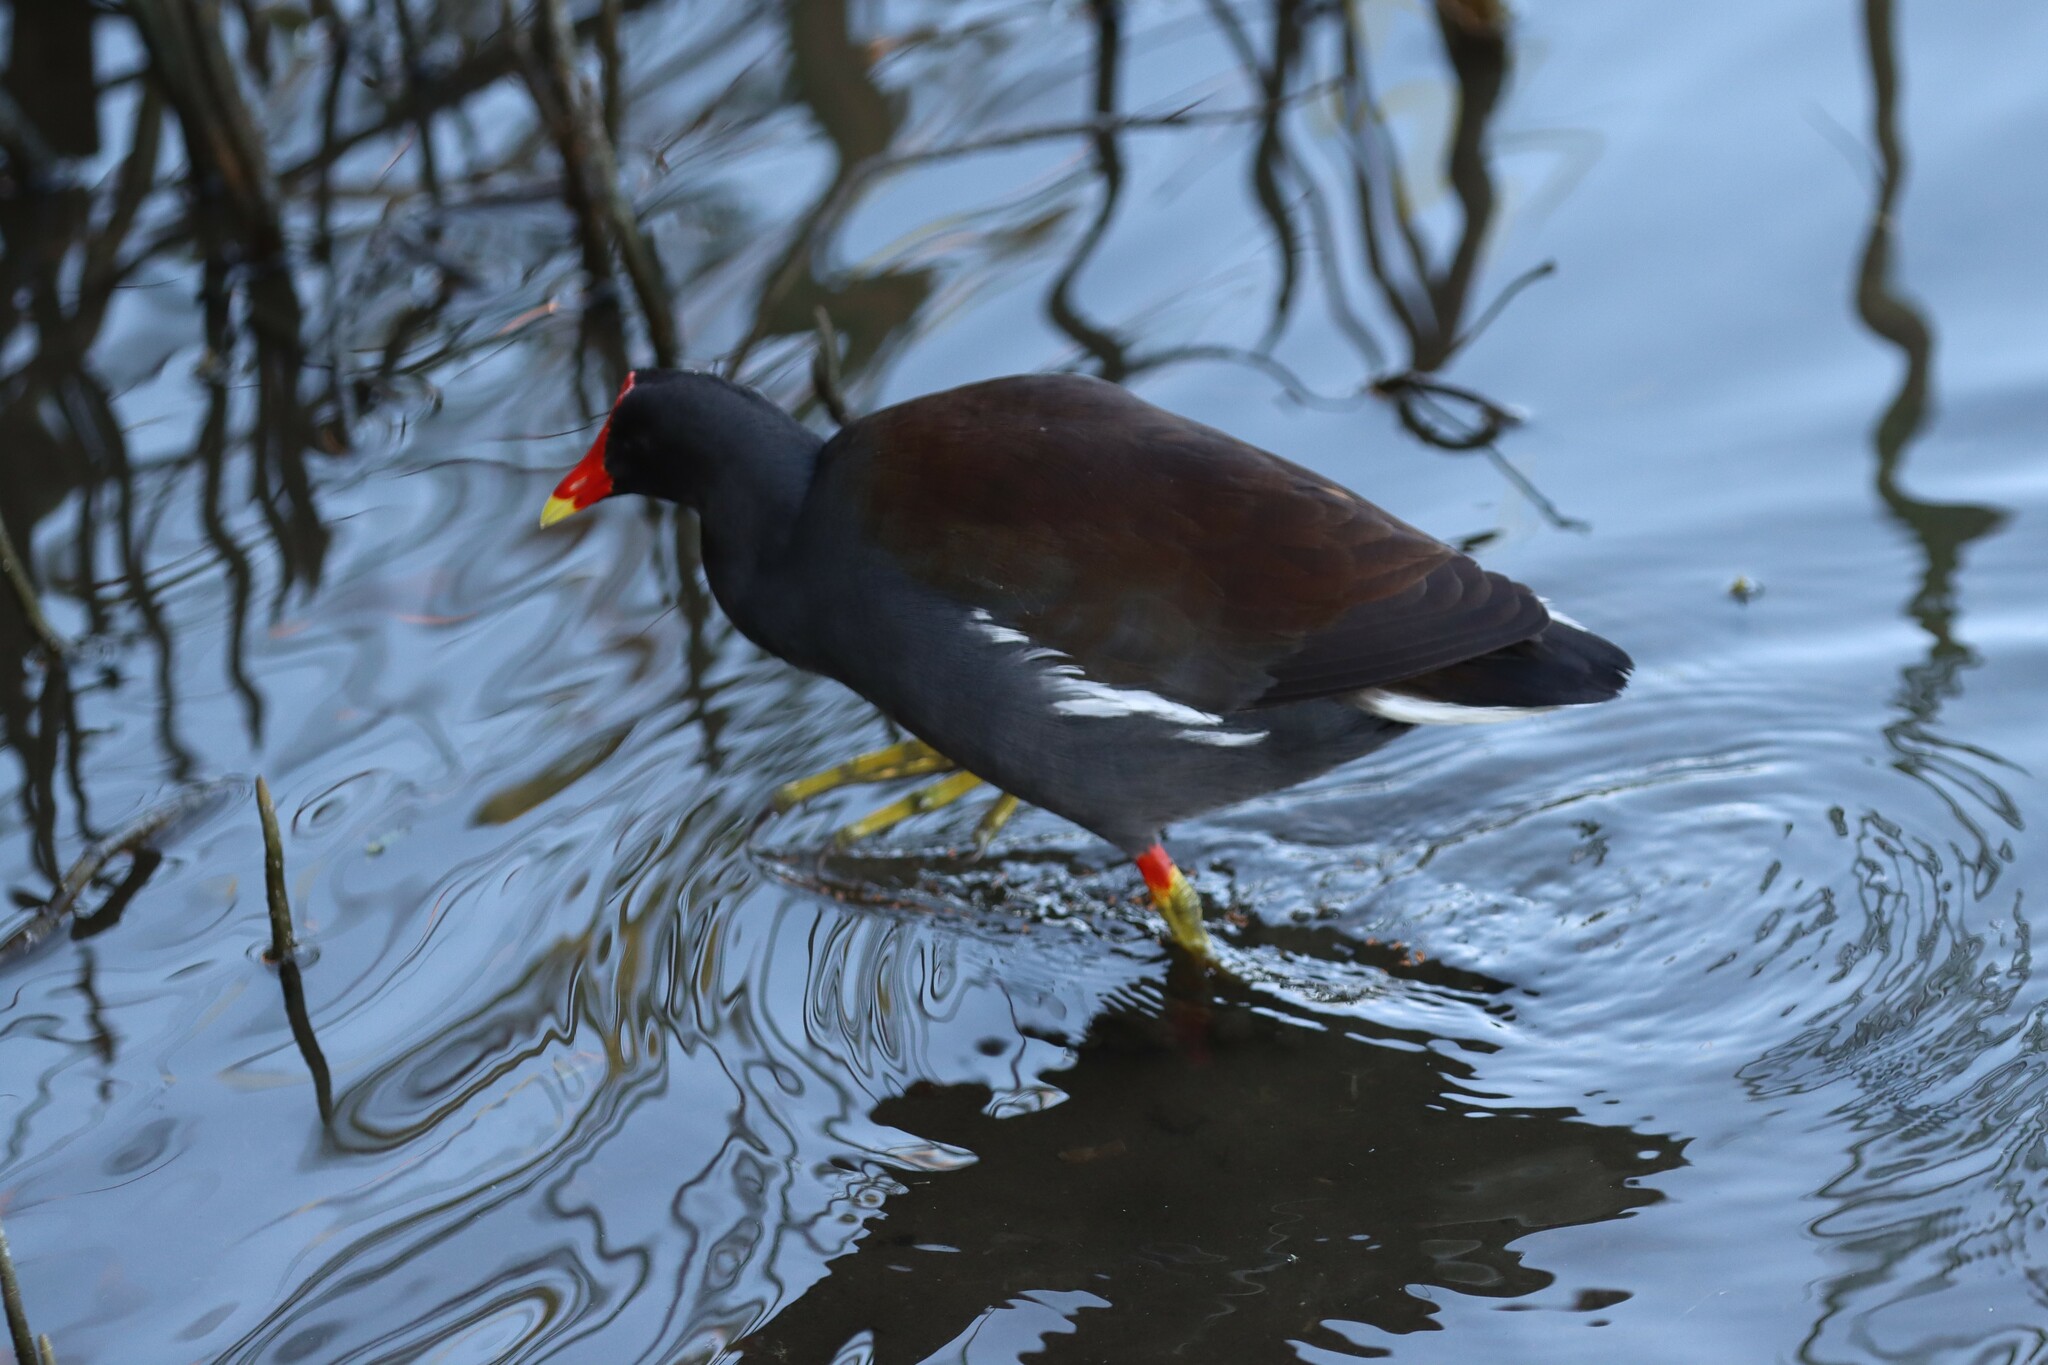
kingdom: Animalia
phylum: Chordata
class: Aves
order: Gruiformes
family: Rallidae
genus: Gallinula
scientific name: Gallinula chloropus
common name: Common moorhen
